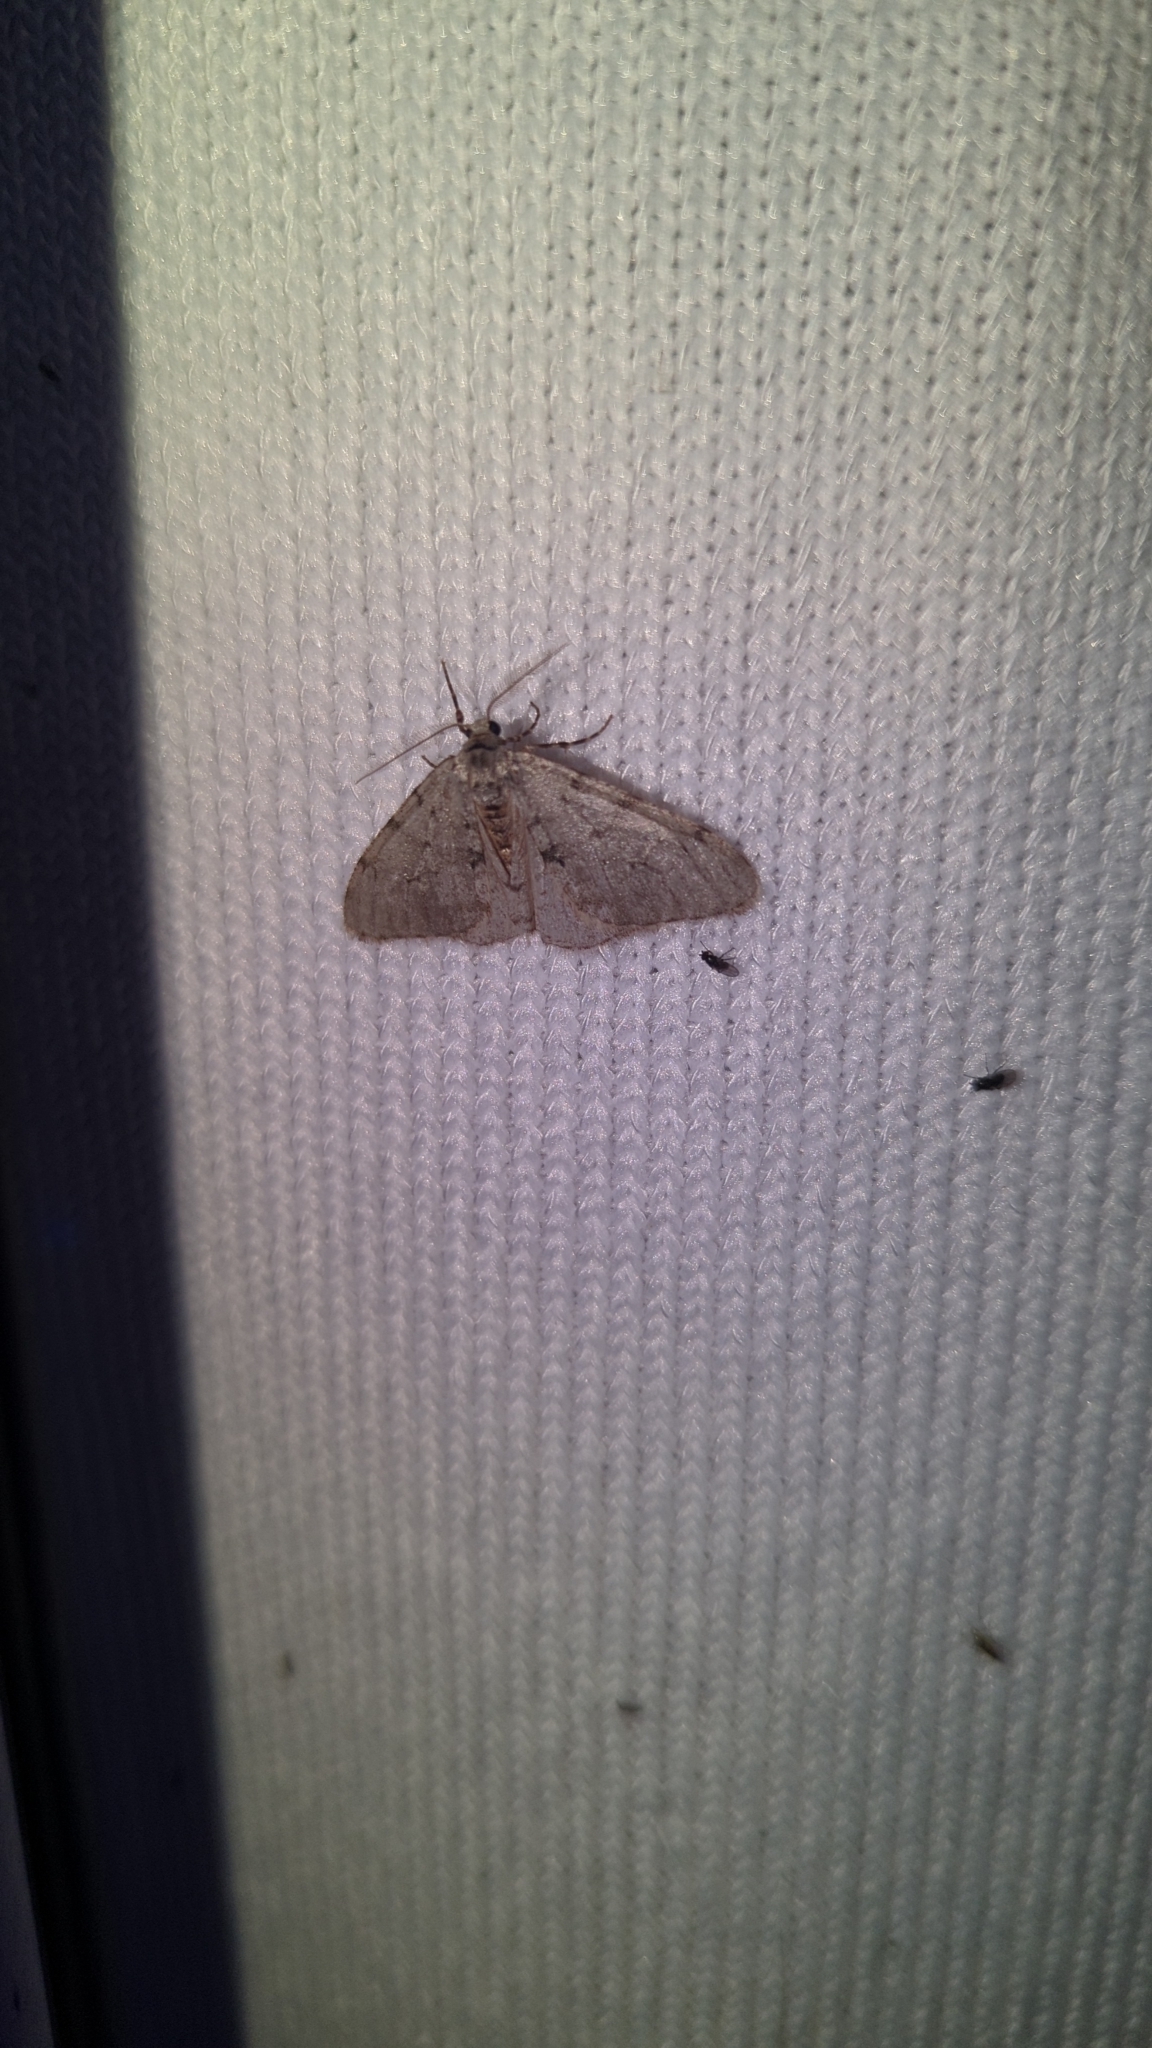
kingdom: Animalia
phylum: Arthropoda
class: Insecta
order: Lepidoptera
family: Geometridae
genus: Phigalia
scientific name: Phigalia strigataria
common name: Small phigalia
